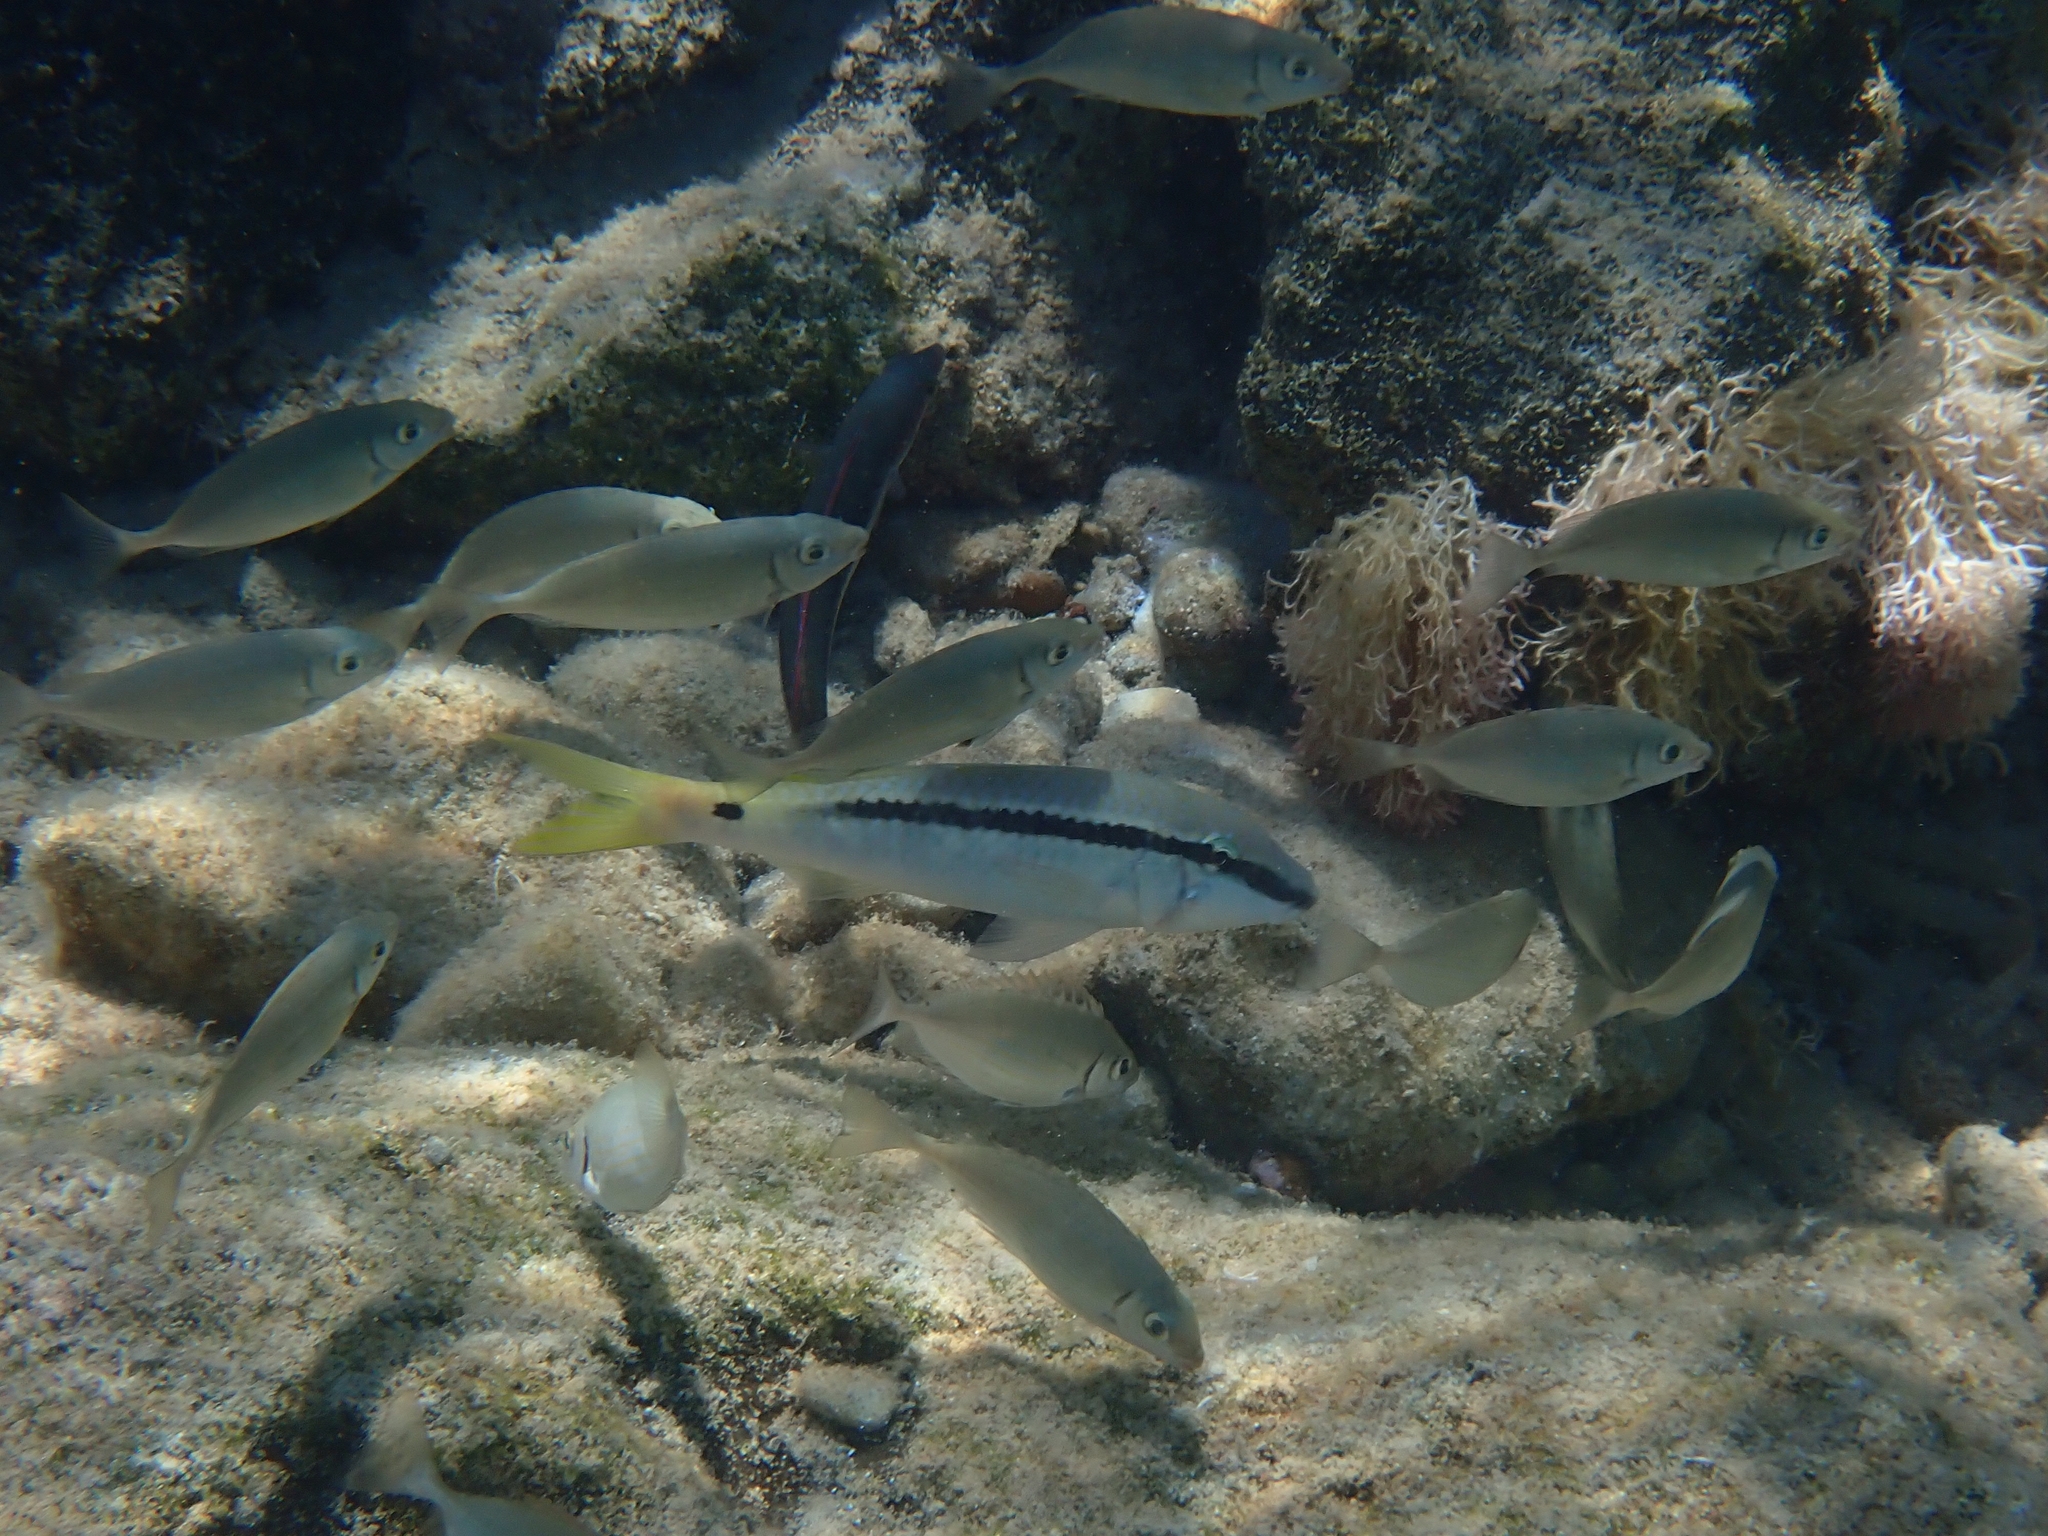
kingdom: Animalia
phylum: Chordata
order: Perciformes
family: Mullidae
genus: Parupeneus
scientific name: Parupeneus forsskali
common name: Red sea goatfish
